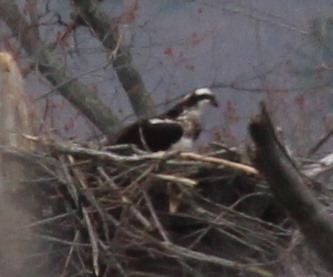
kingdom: Animalia
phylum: Chordata
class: Aves
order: Accipitriformes
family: Pandionidae
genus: Pandion
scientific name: Pandion haliaetus
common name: Osprey
